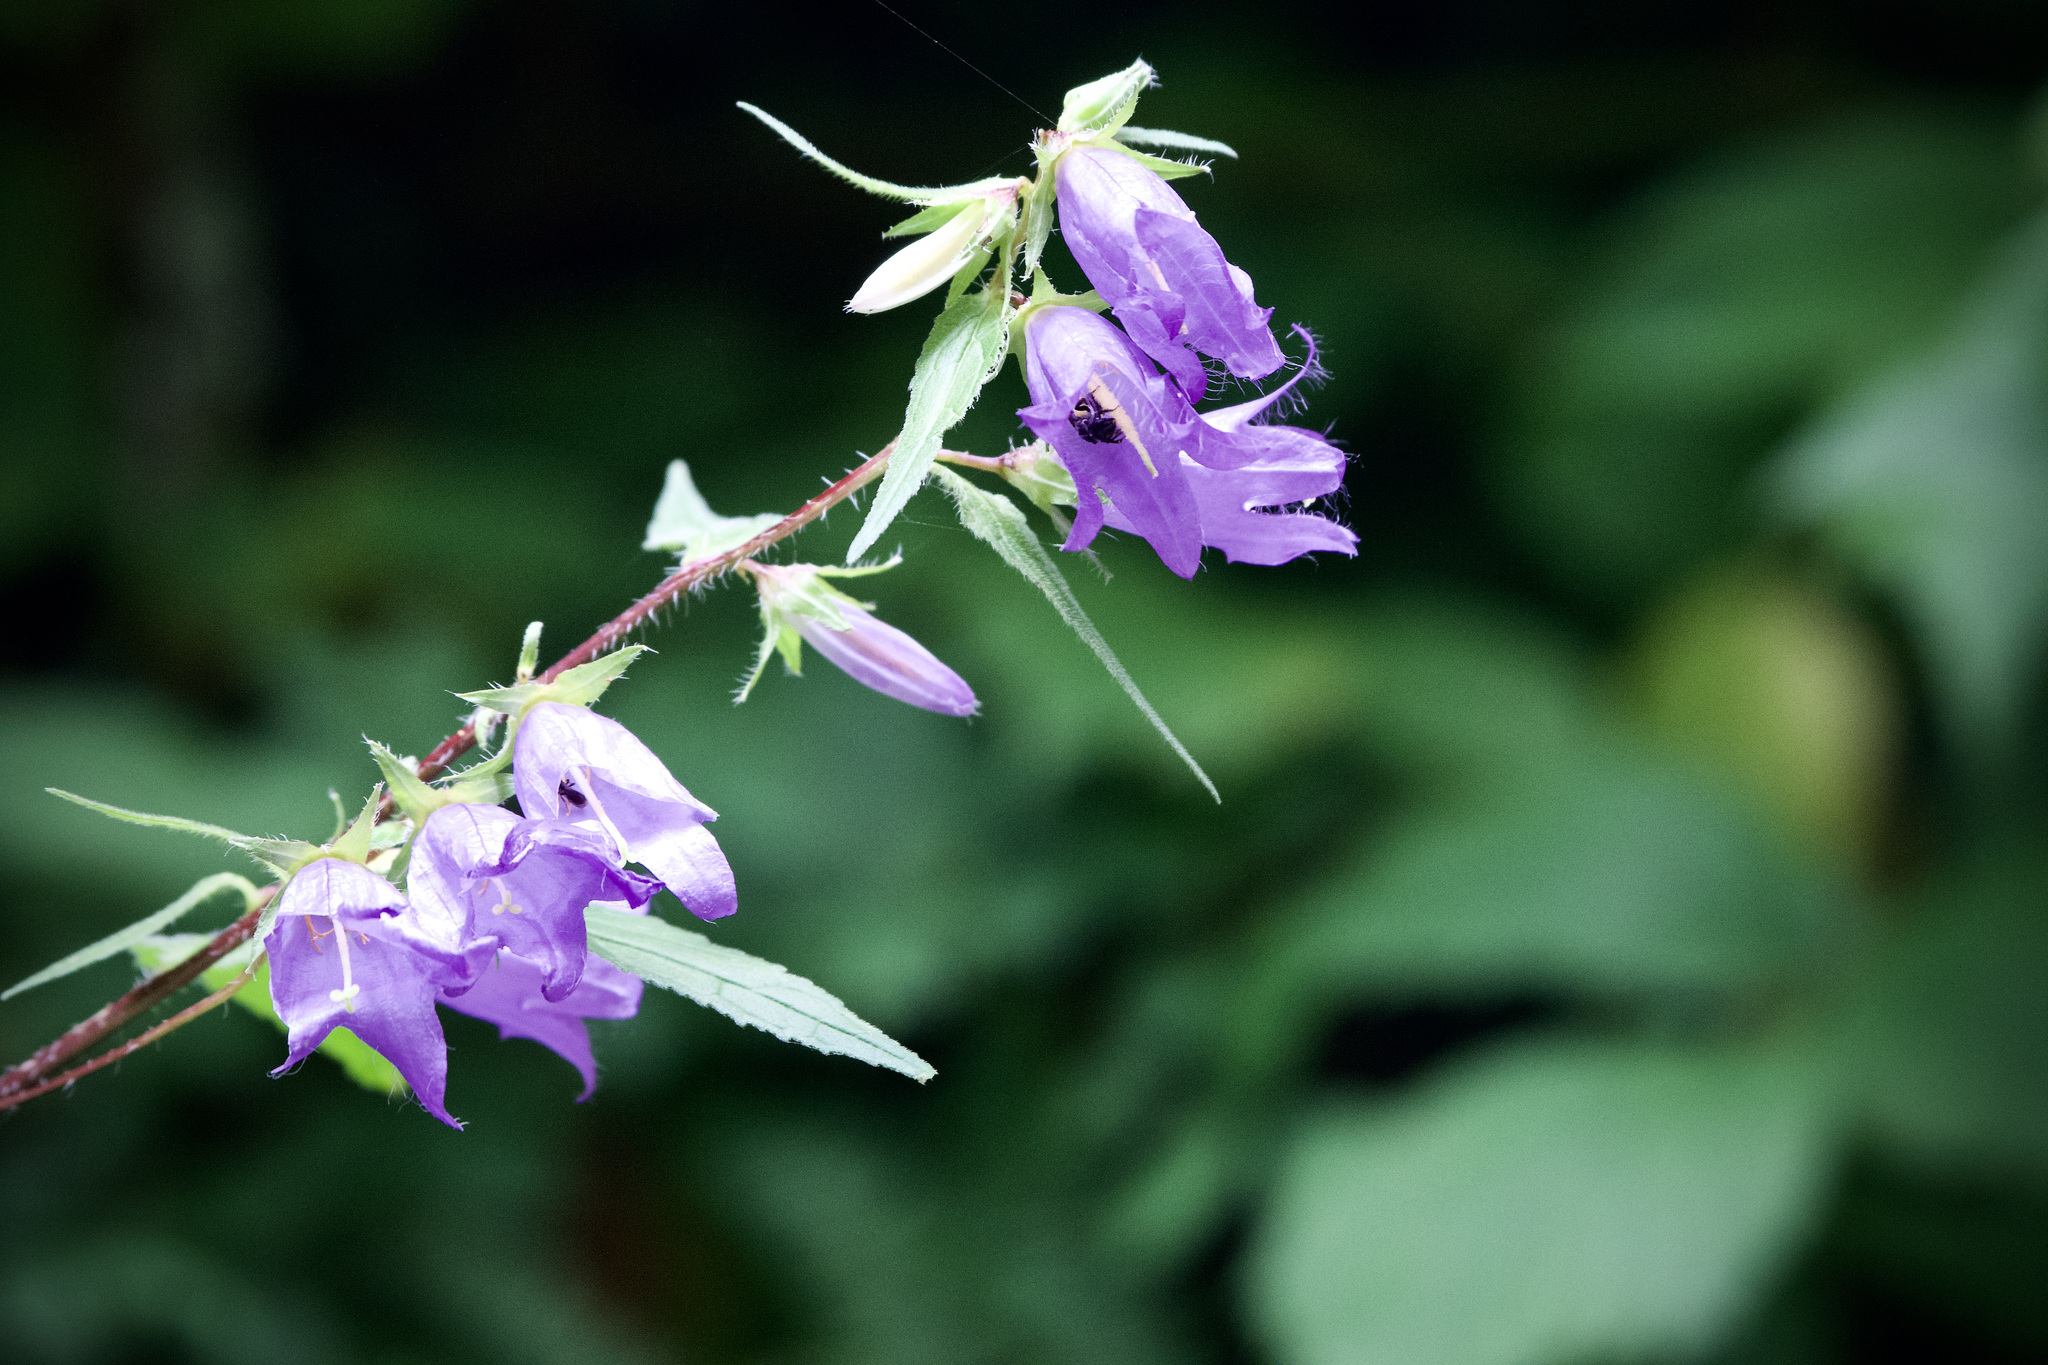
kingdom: Plantae
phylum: Tracheophyta
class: Magnoliopsida
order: Asterales
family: Campanulaceae
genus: Campanula
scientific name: Campanula trachelium
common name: Nettle-leaved bellflower
